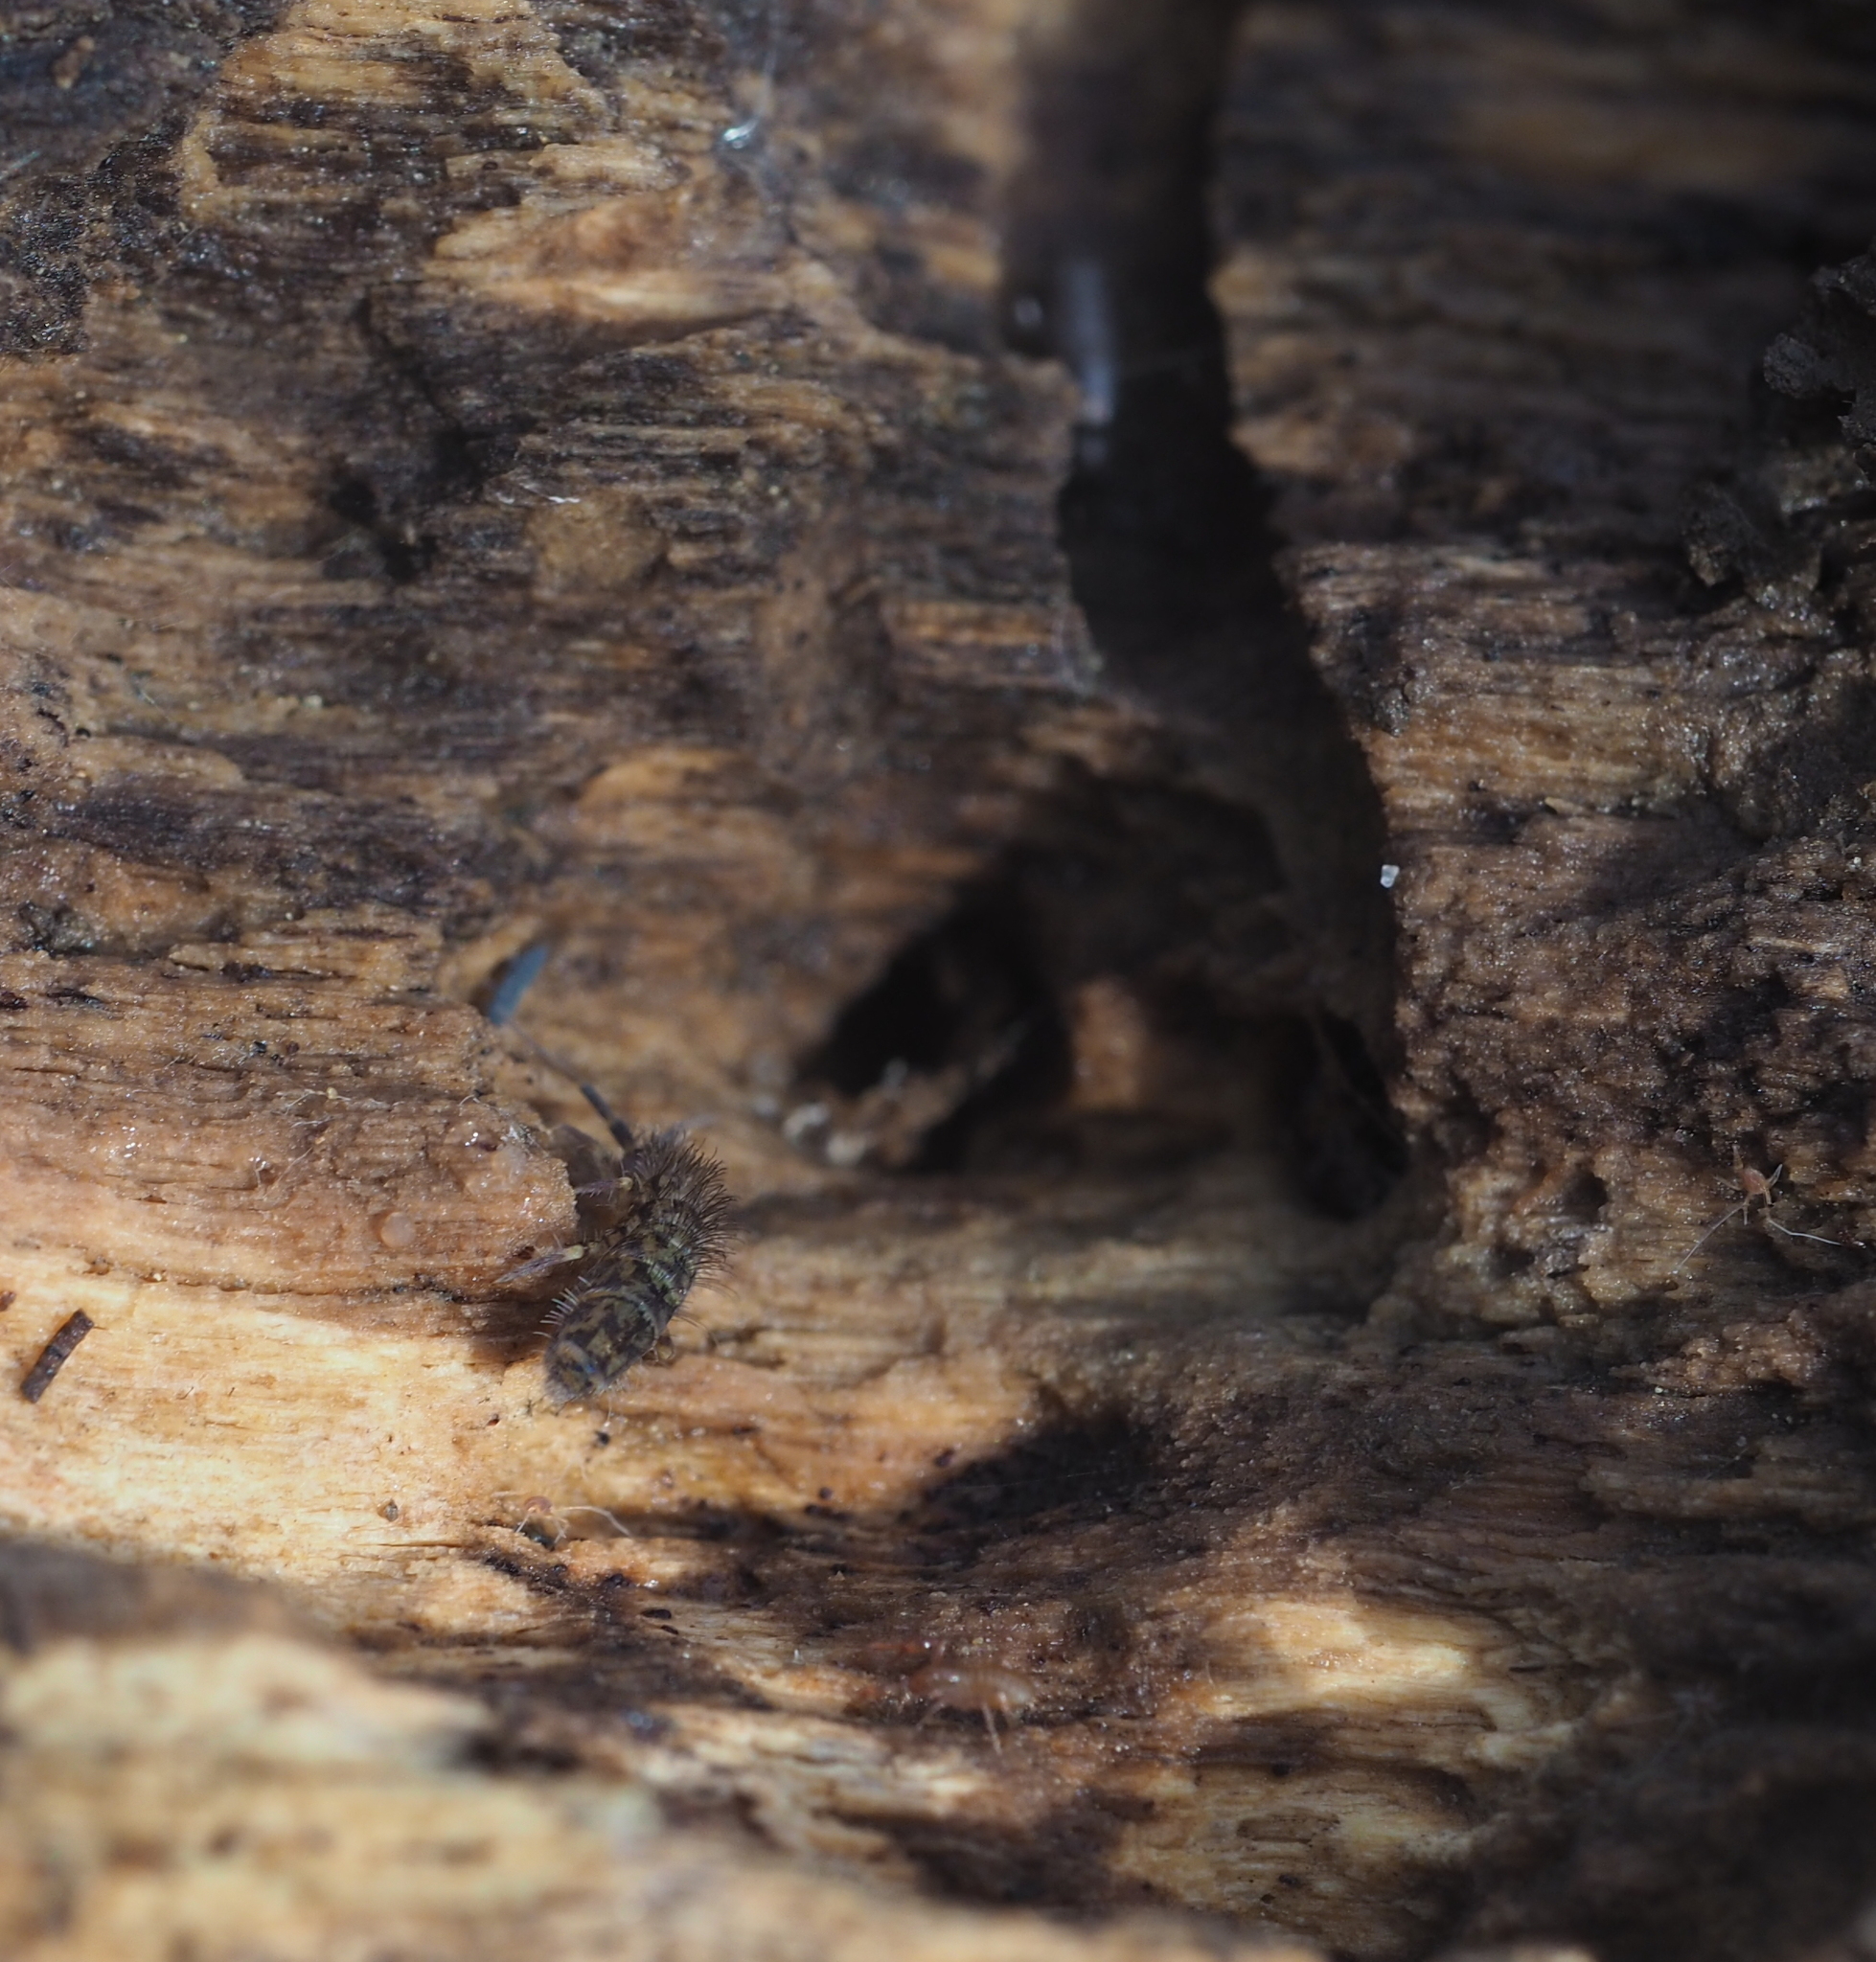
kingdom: Animalia
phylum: Arthropoda
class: Collembola
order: Entomobryomorpha
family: Orchesellidae
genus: Orchesella
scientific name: Orchesella villosa
